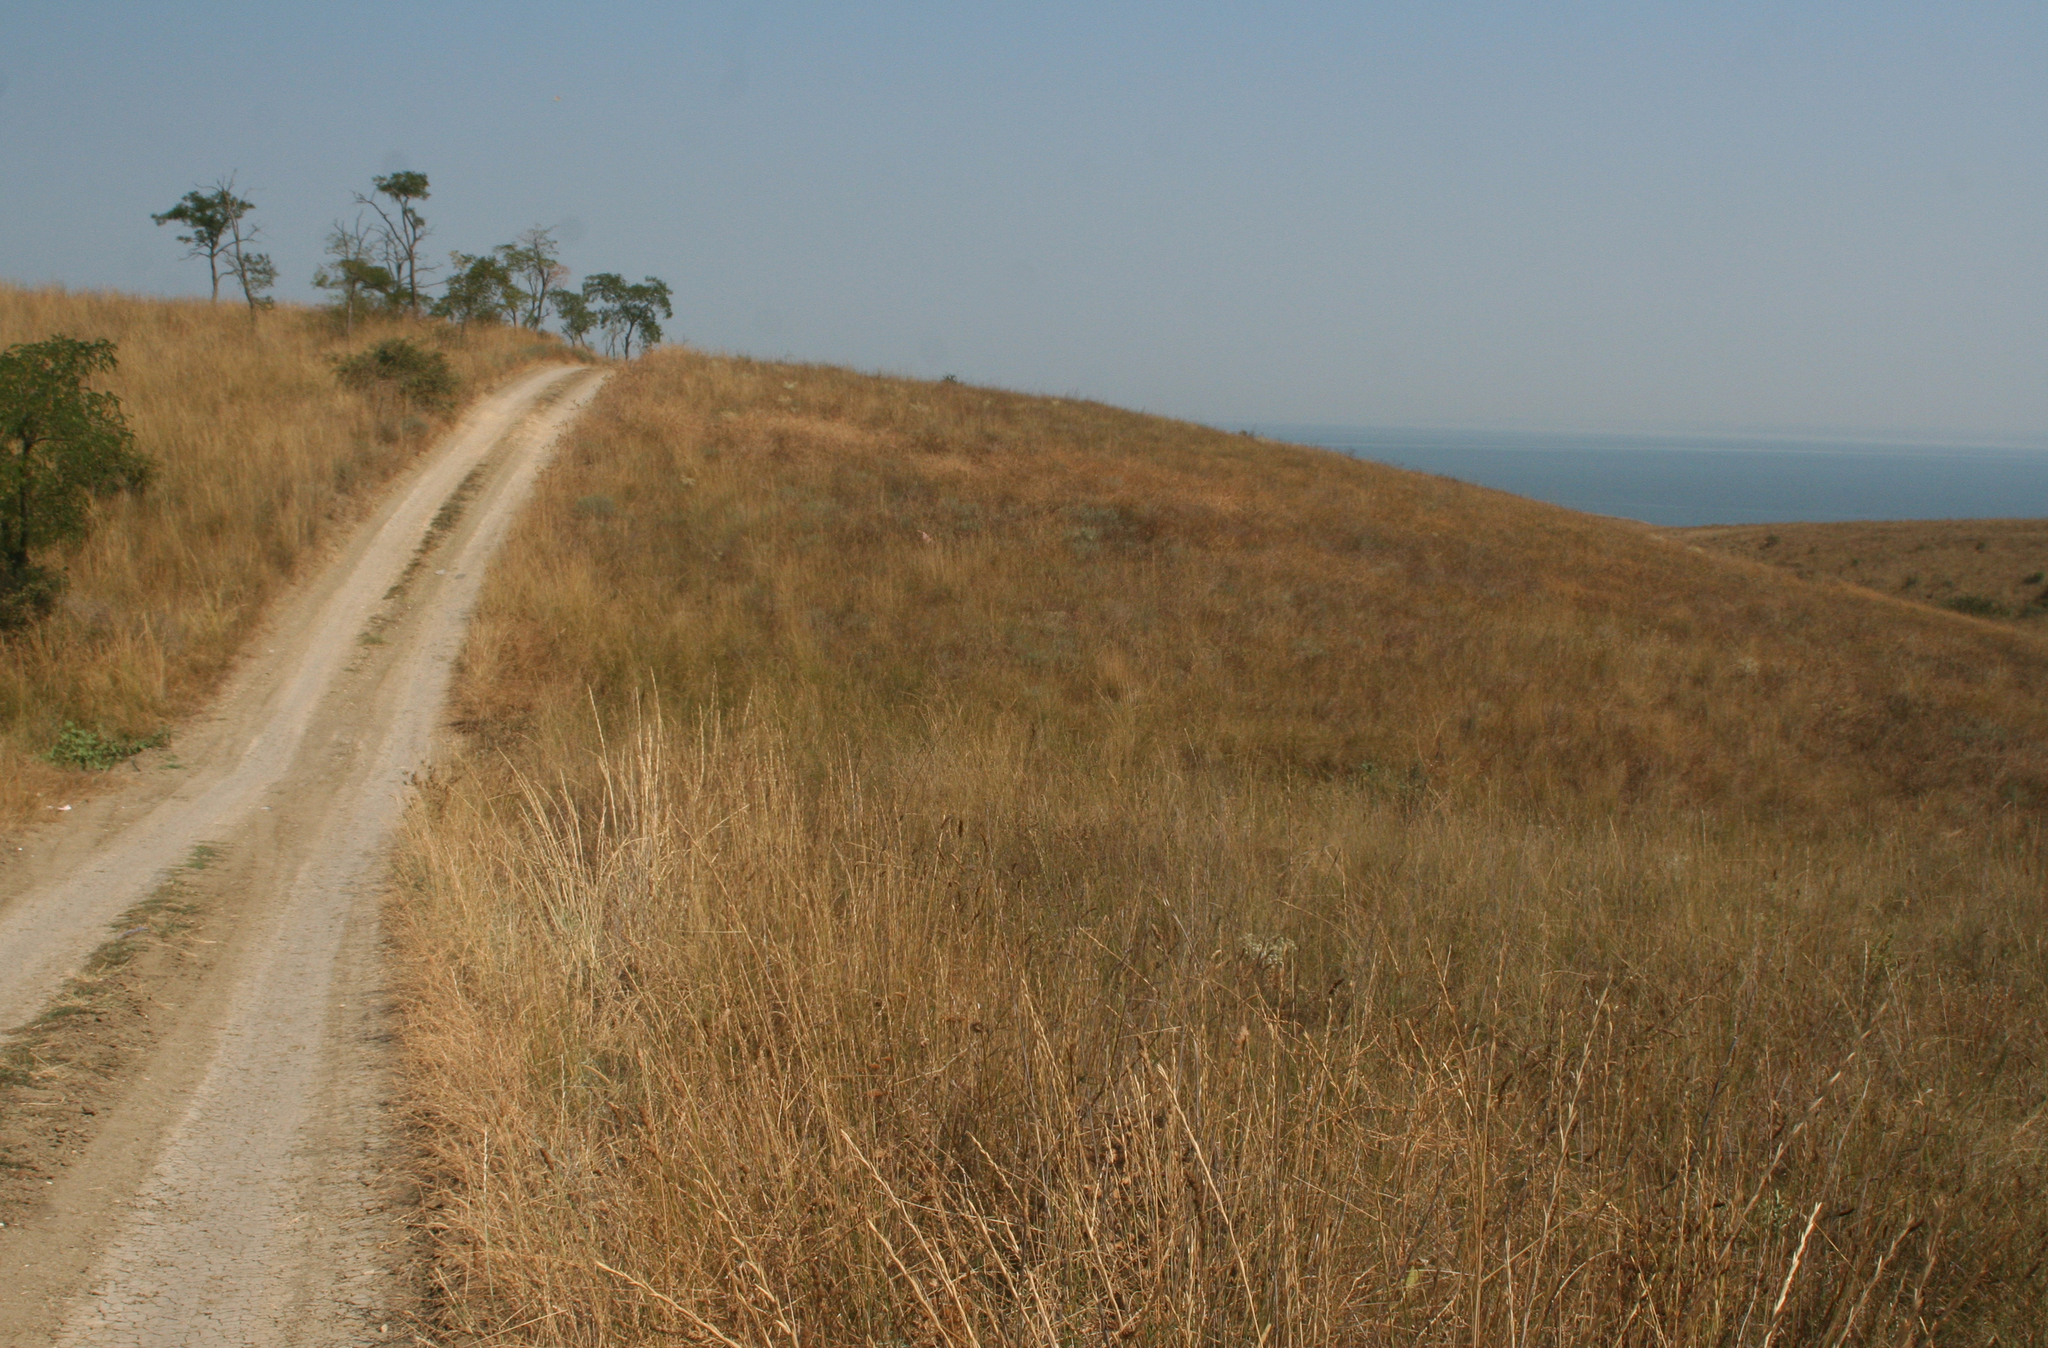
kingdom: Plantae
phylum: Tracheophyta
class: Magnoliopsida
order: Fabales
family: Fabaceae
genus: Robinia
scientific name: Robinia pseudoacacia
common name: Black locust
